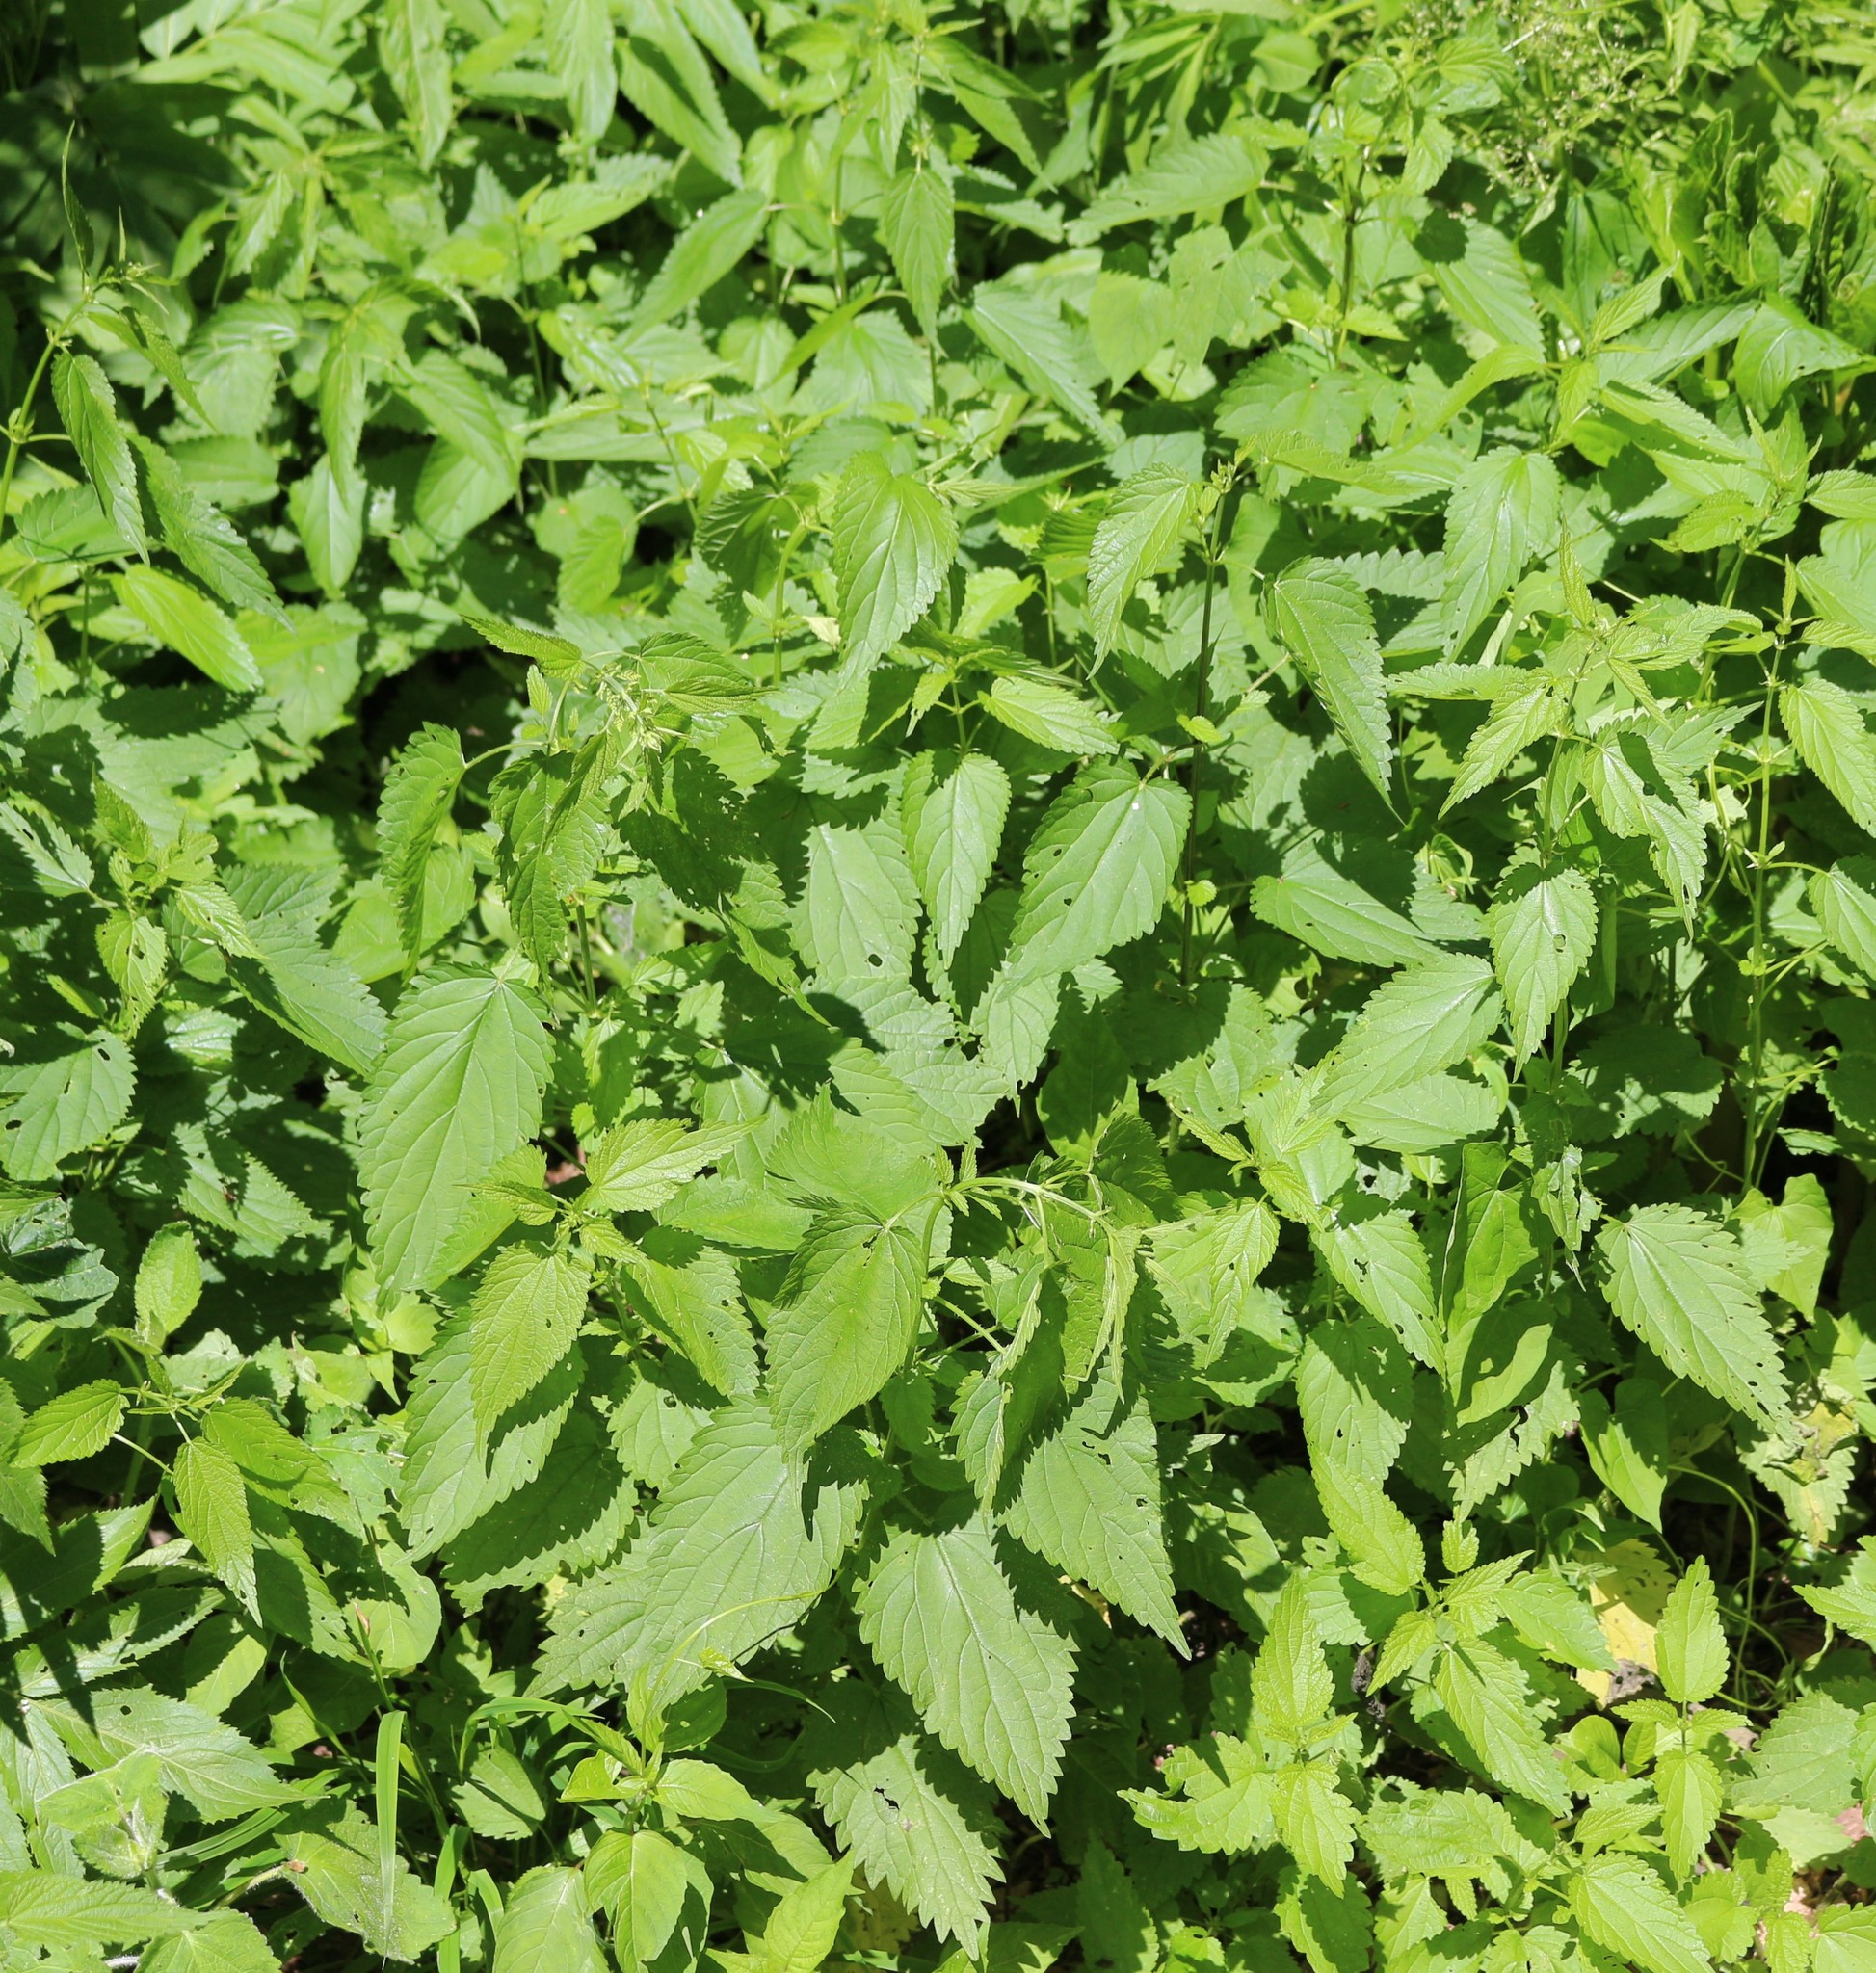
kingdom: Plantae
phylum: Tracheophyta
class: Magnoliopsida
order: Rosales
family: Urticaceae
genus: Urtica
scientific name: Urtica dioica
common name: Common nettle
